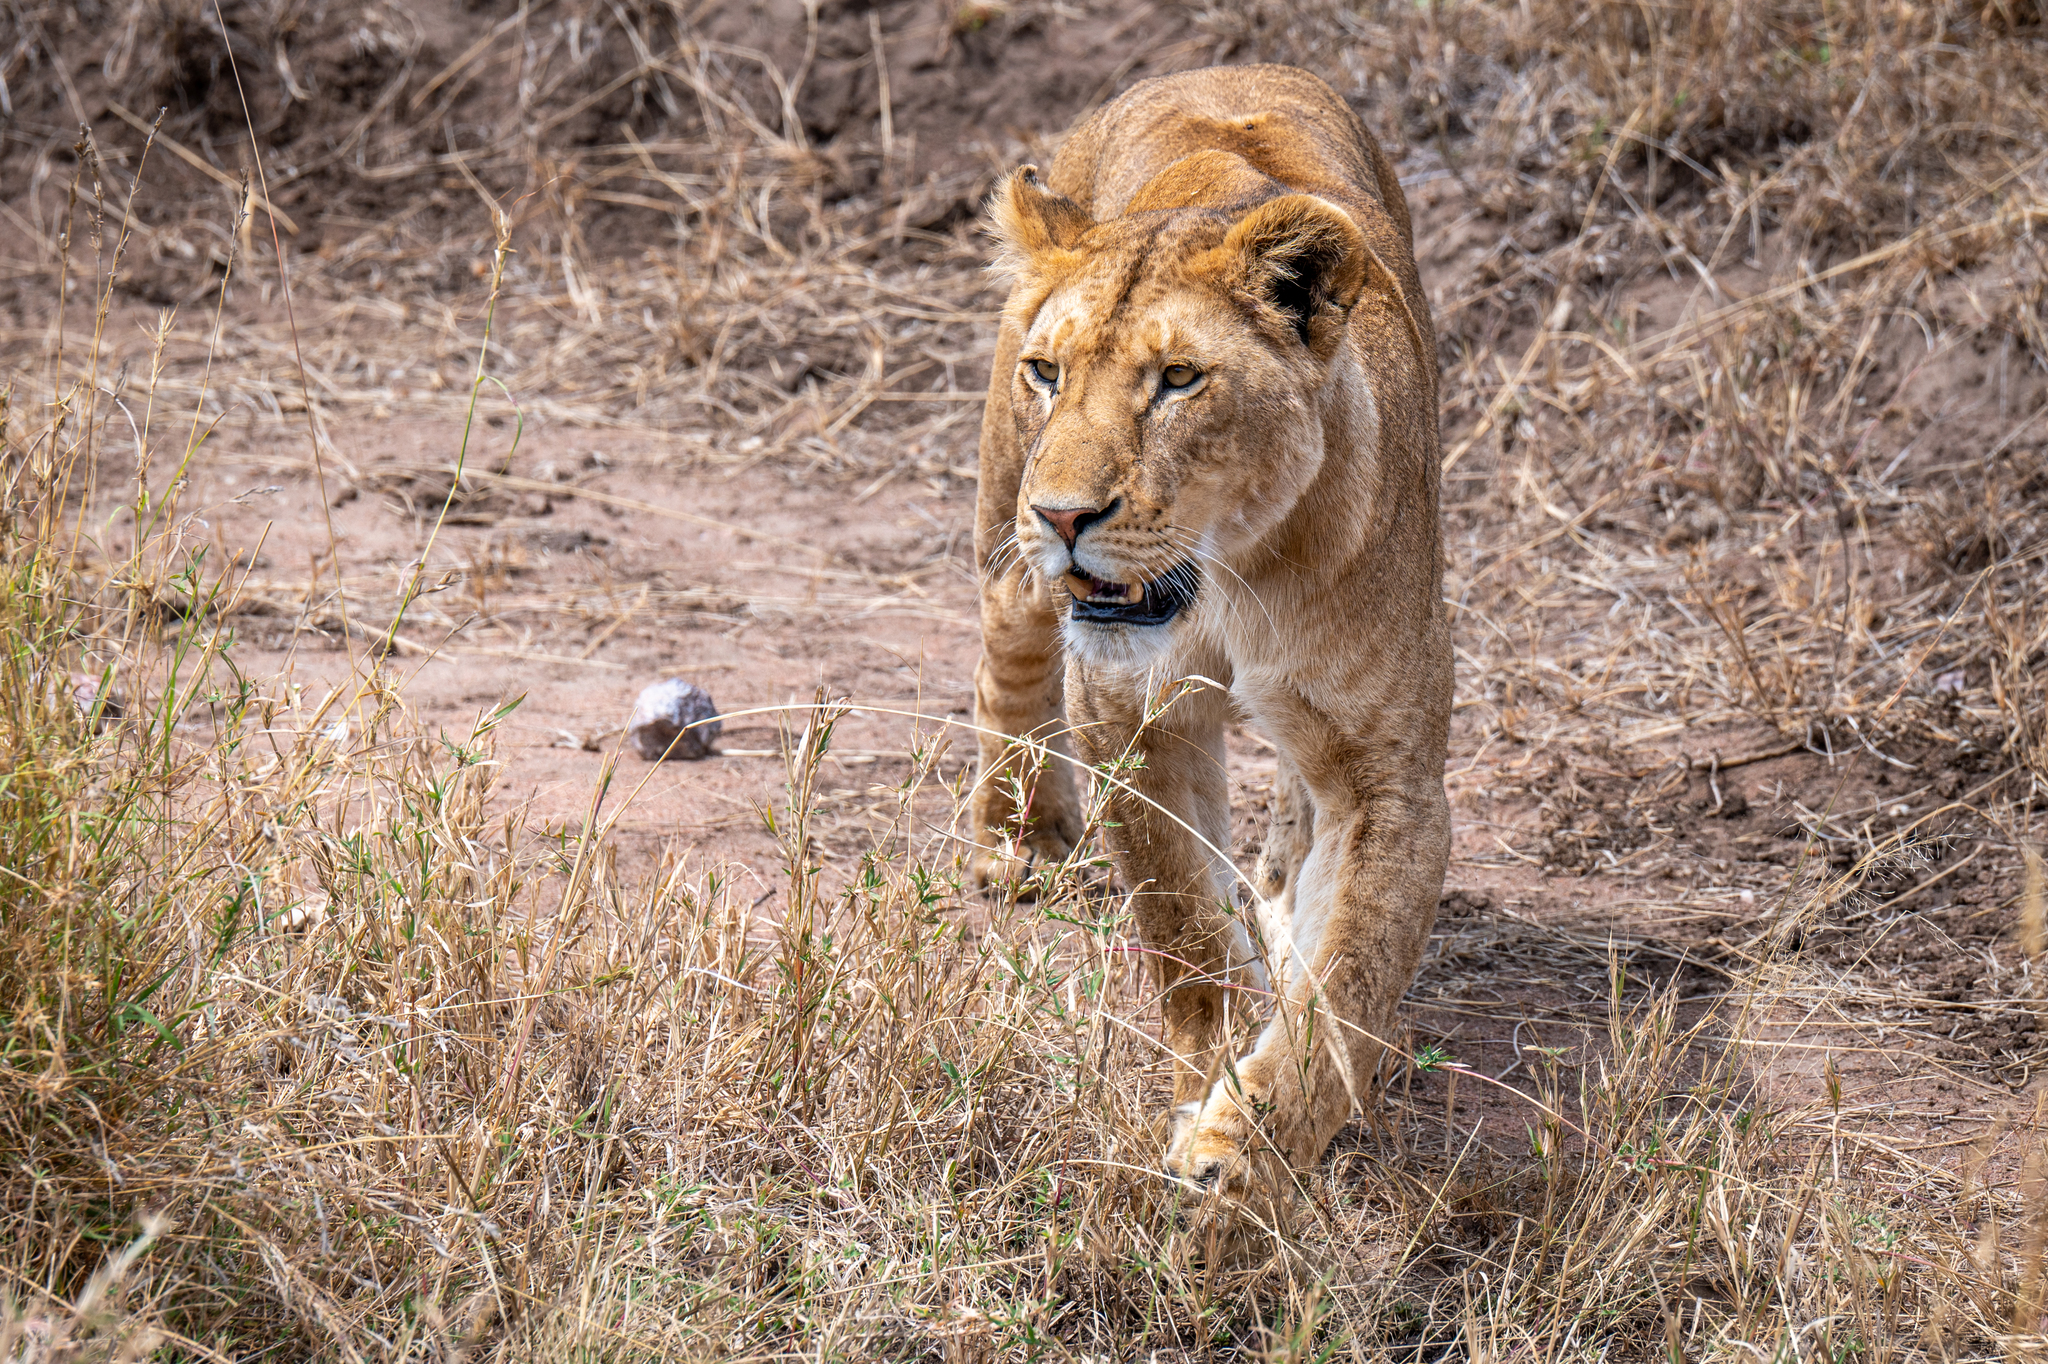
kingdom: Animalia
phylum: Chordata
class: Mammalia
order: Carnivora
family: Felidae
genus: Panthera
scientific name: Panthera leo
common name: Lion
